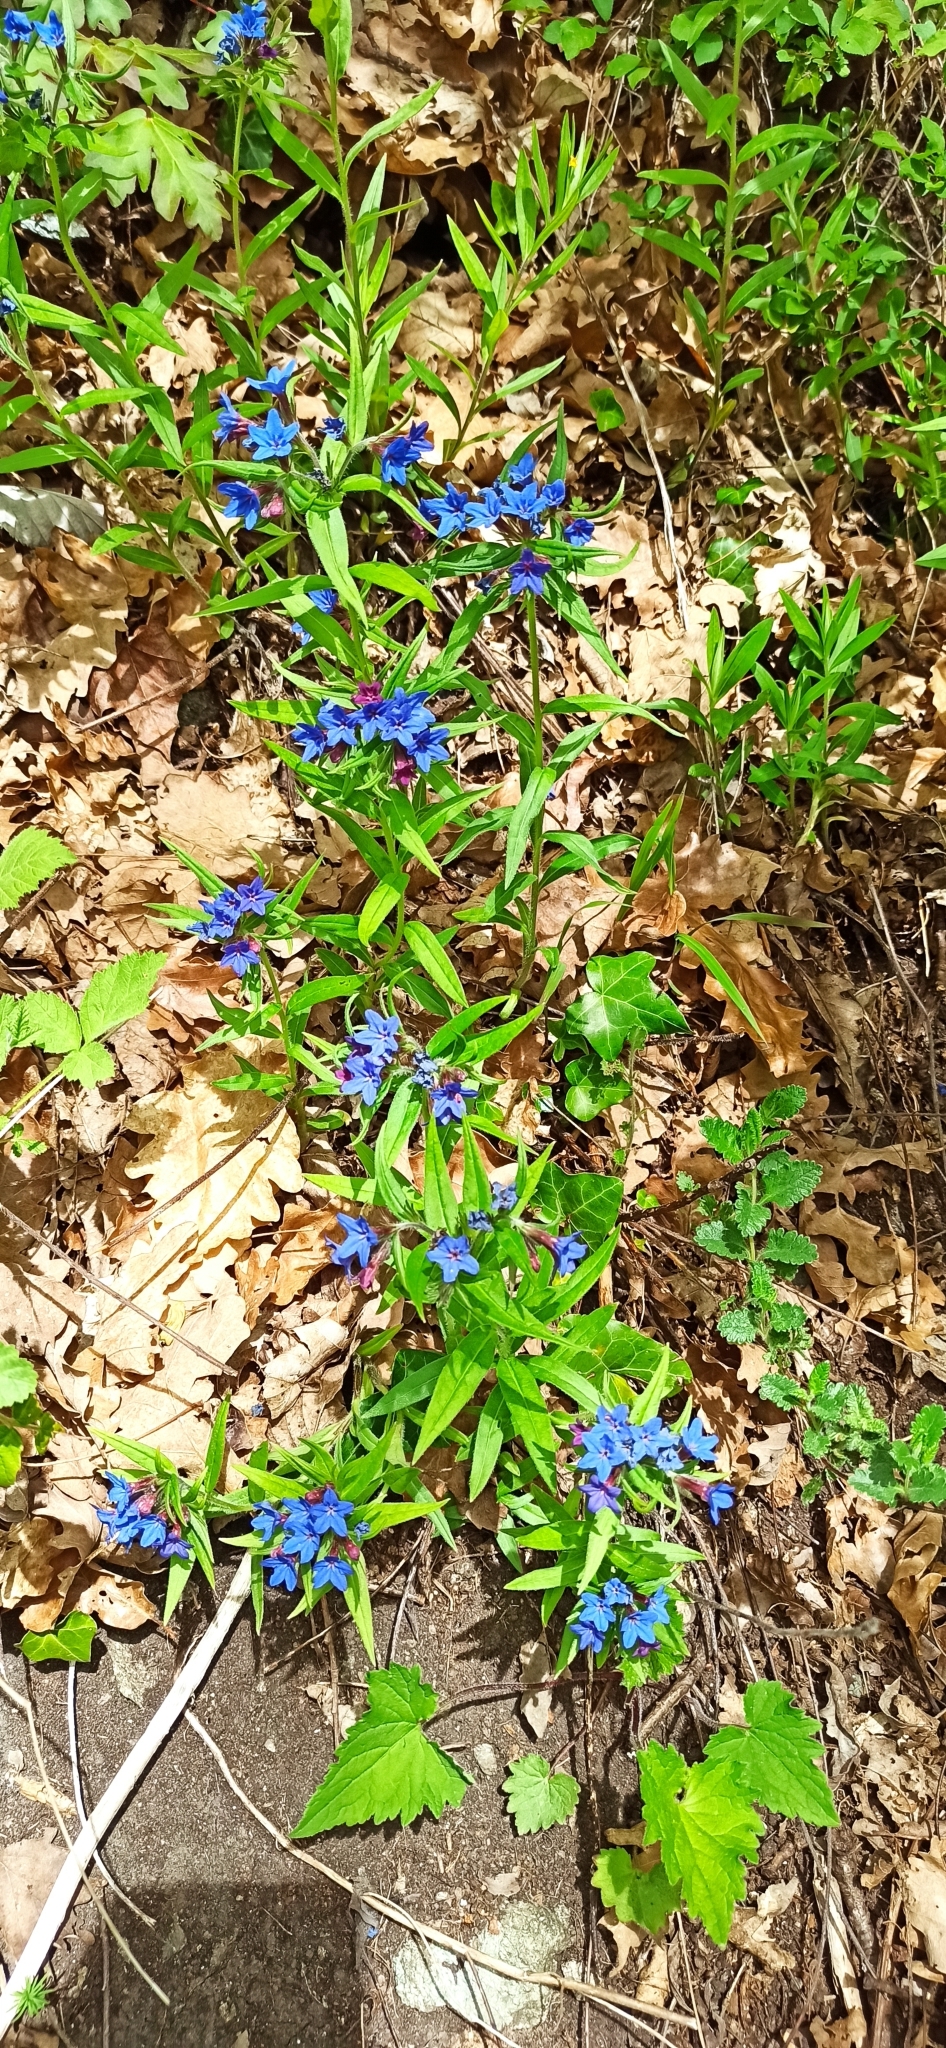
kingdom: Plantae
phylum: Tracheophyta
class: Magnoliopsida
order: Boraginales
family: Boraginaceae
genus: Aegonychon
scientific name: Aegonychon purpurocaeruleum
